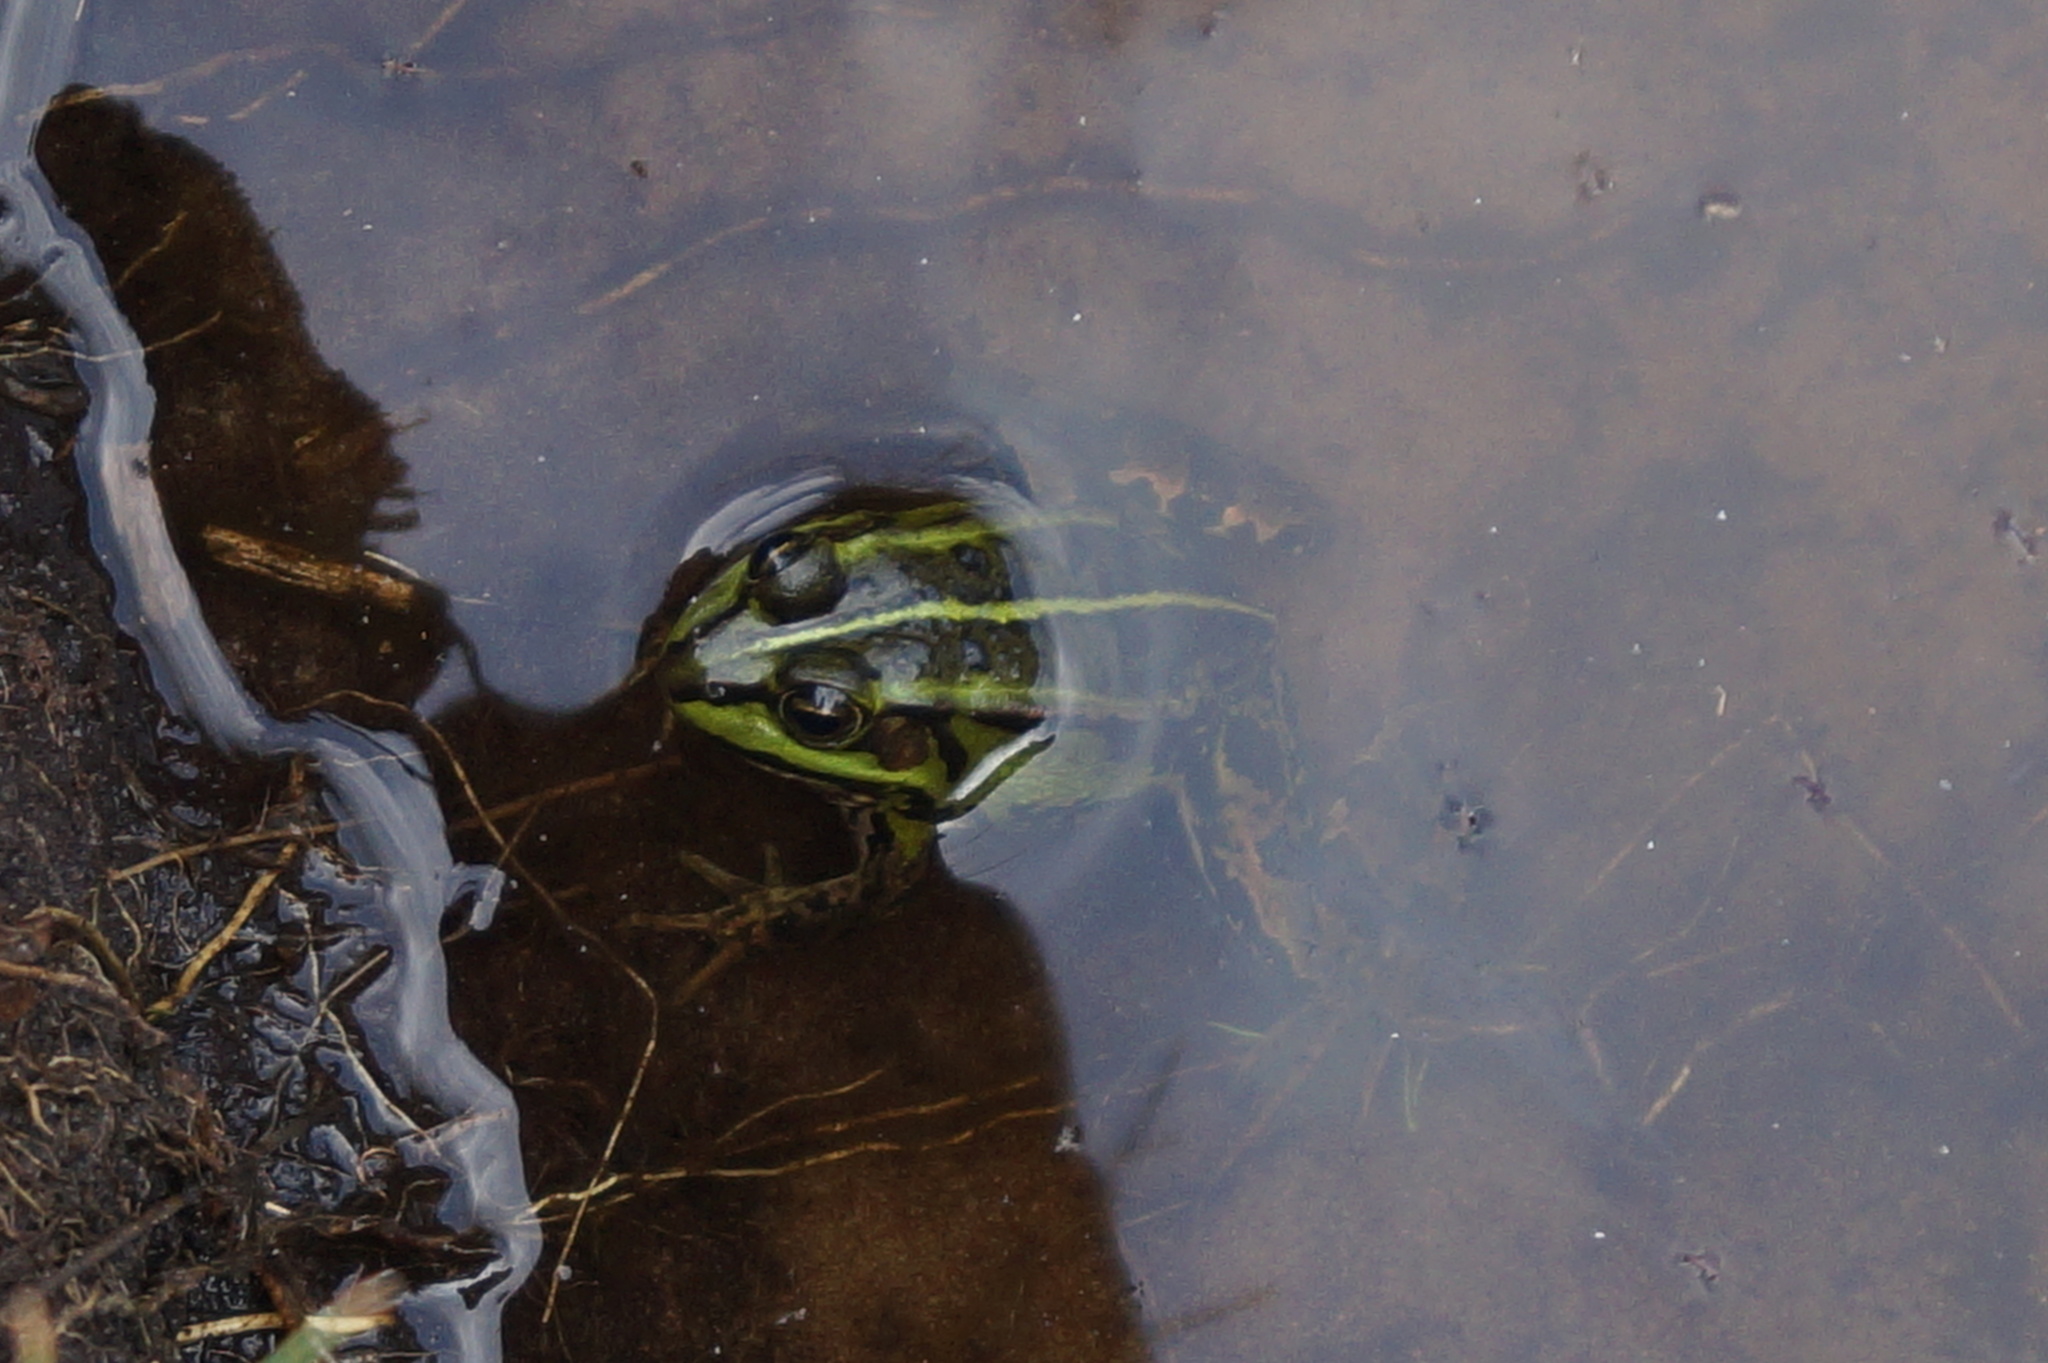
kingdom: Animalia
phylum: Chordata
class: Amphibia
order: Anura
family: Ranidae
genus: Pelophylax
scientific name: Pelophylax
